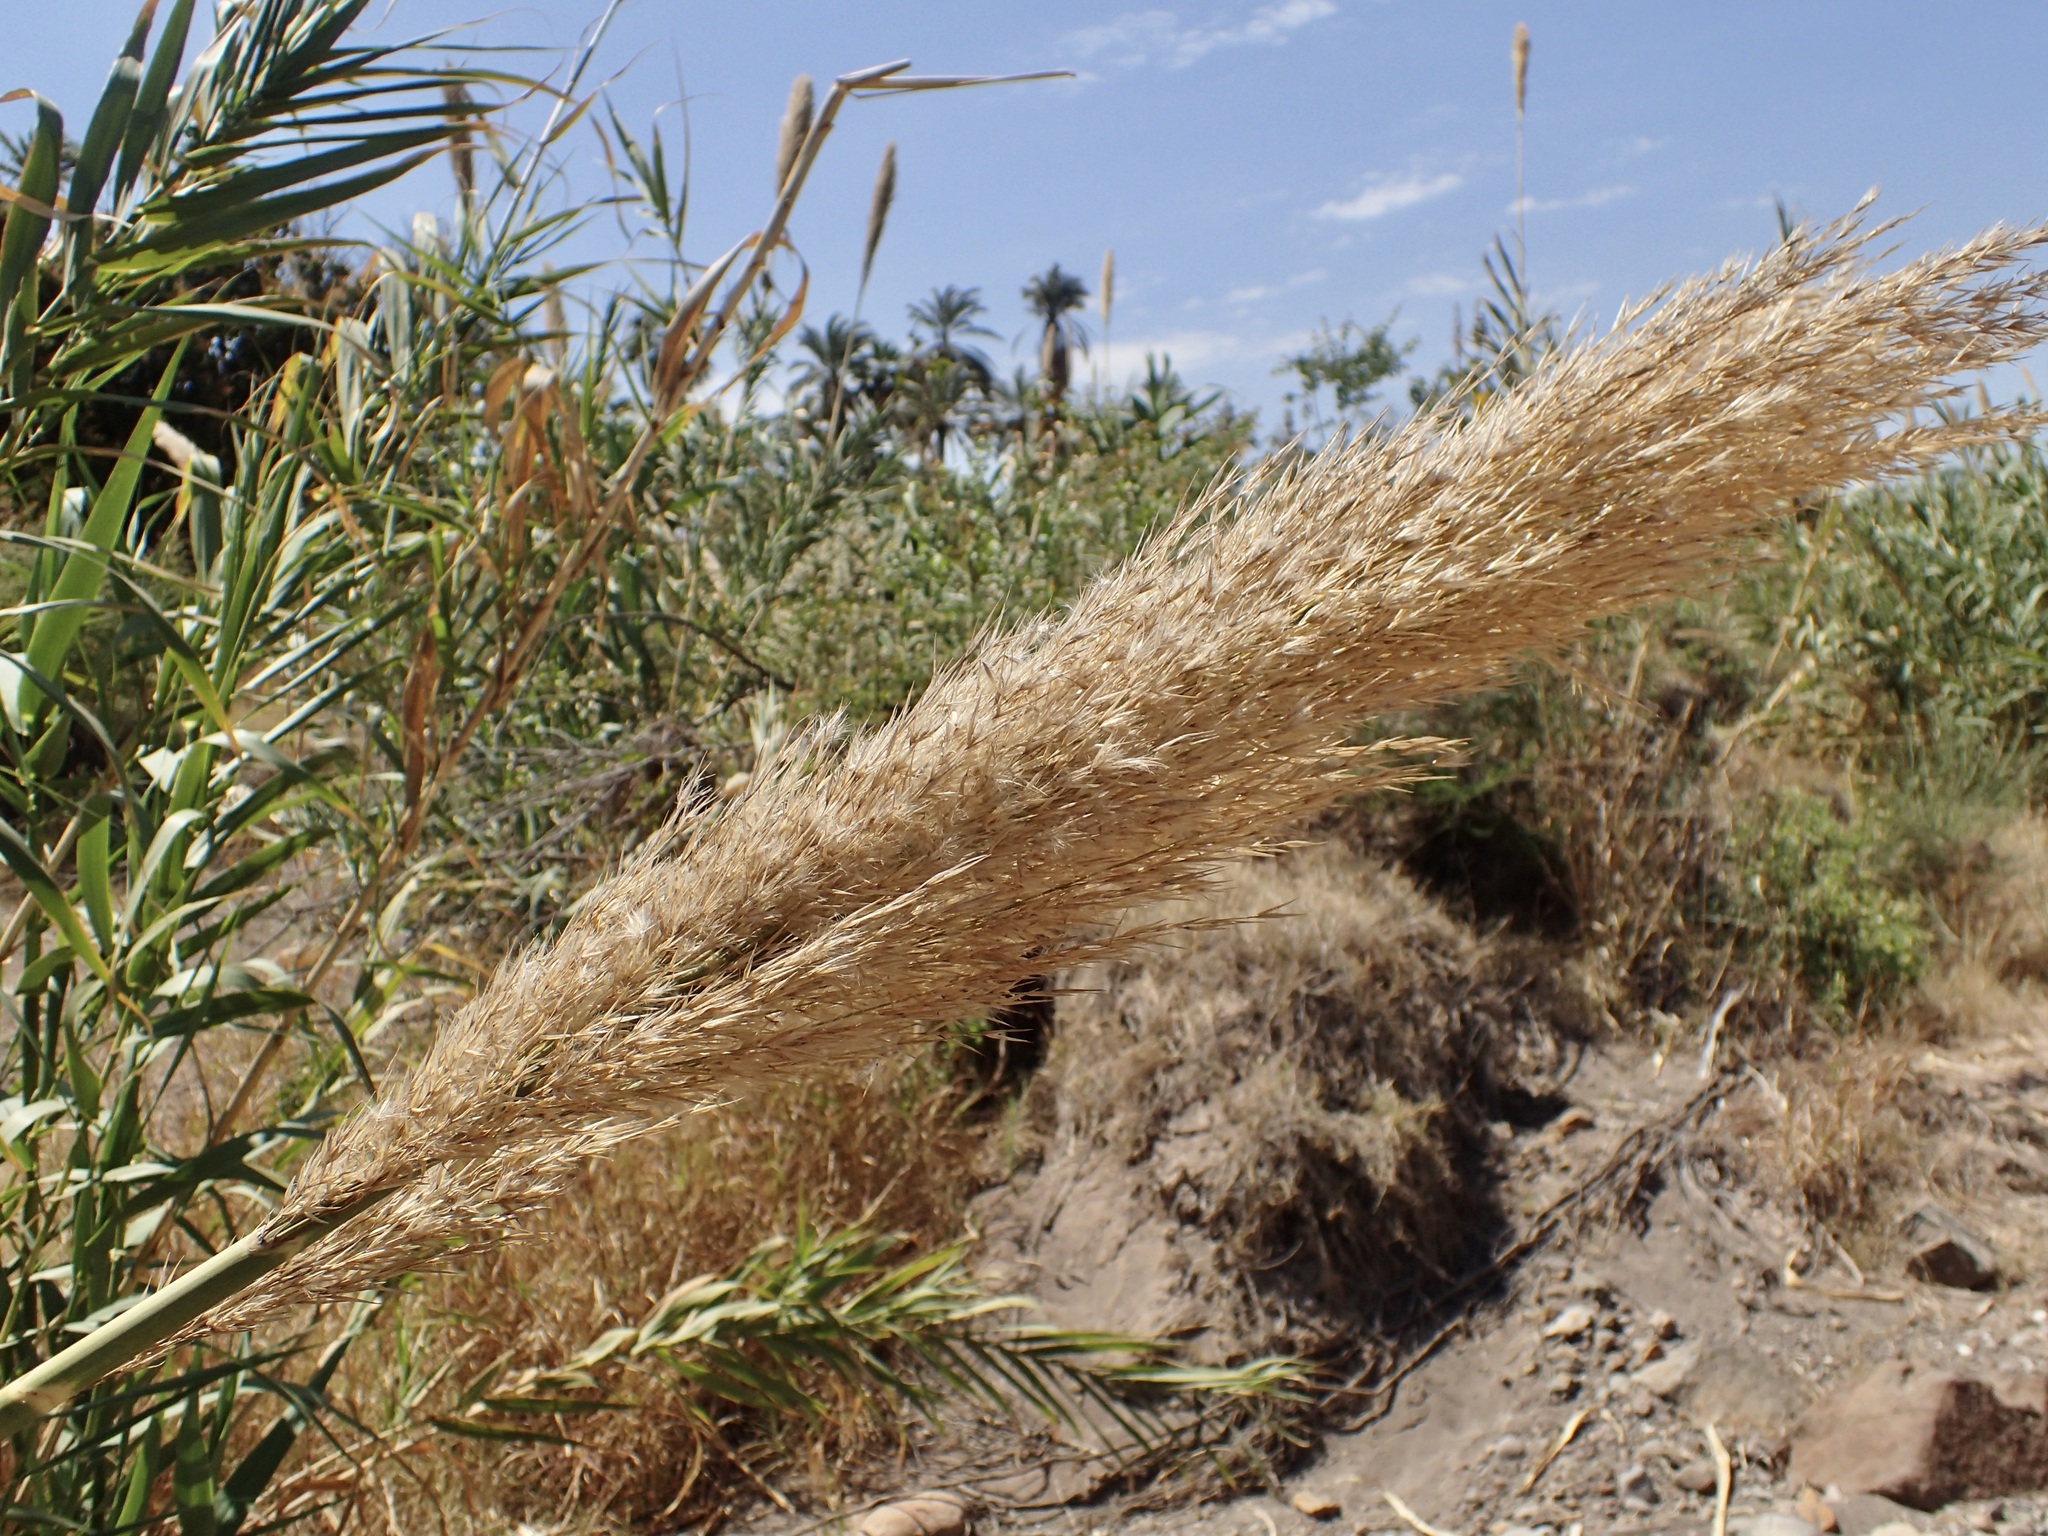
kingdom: Plantae
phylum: Tracheophyta
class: Liliopsida
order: Poales
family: Poaceae
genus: Arundo
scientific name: Arundo donax
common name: Giant reed
